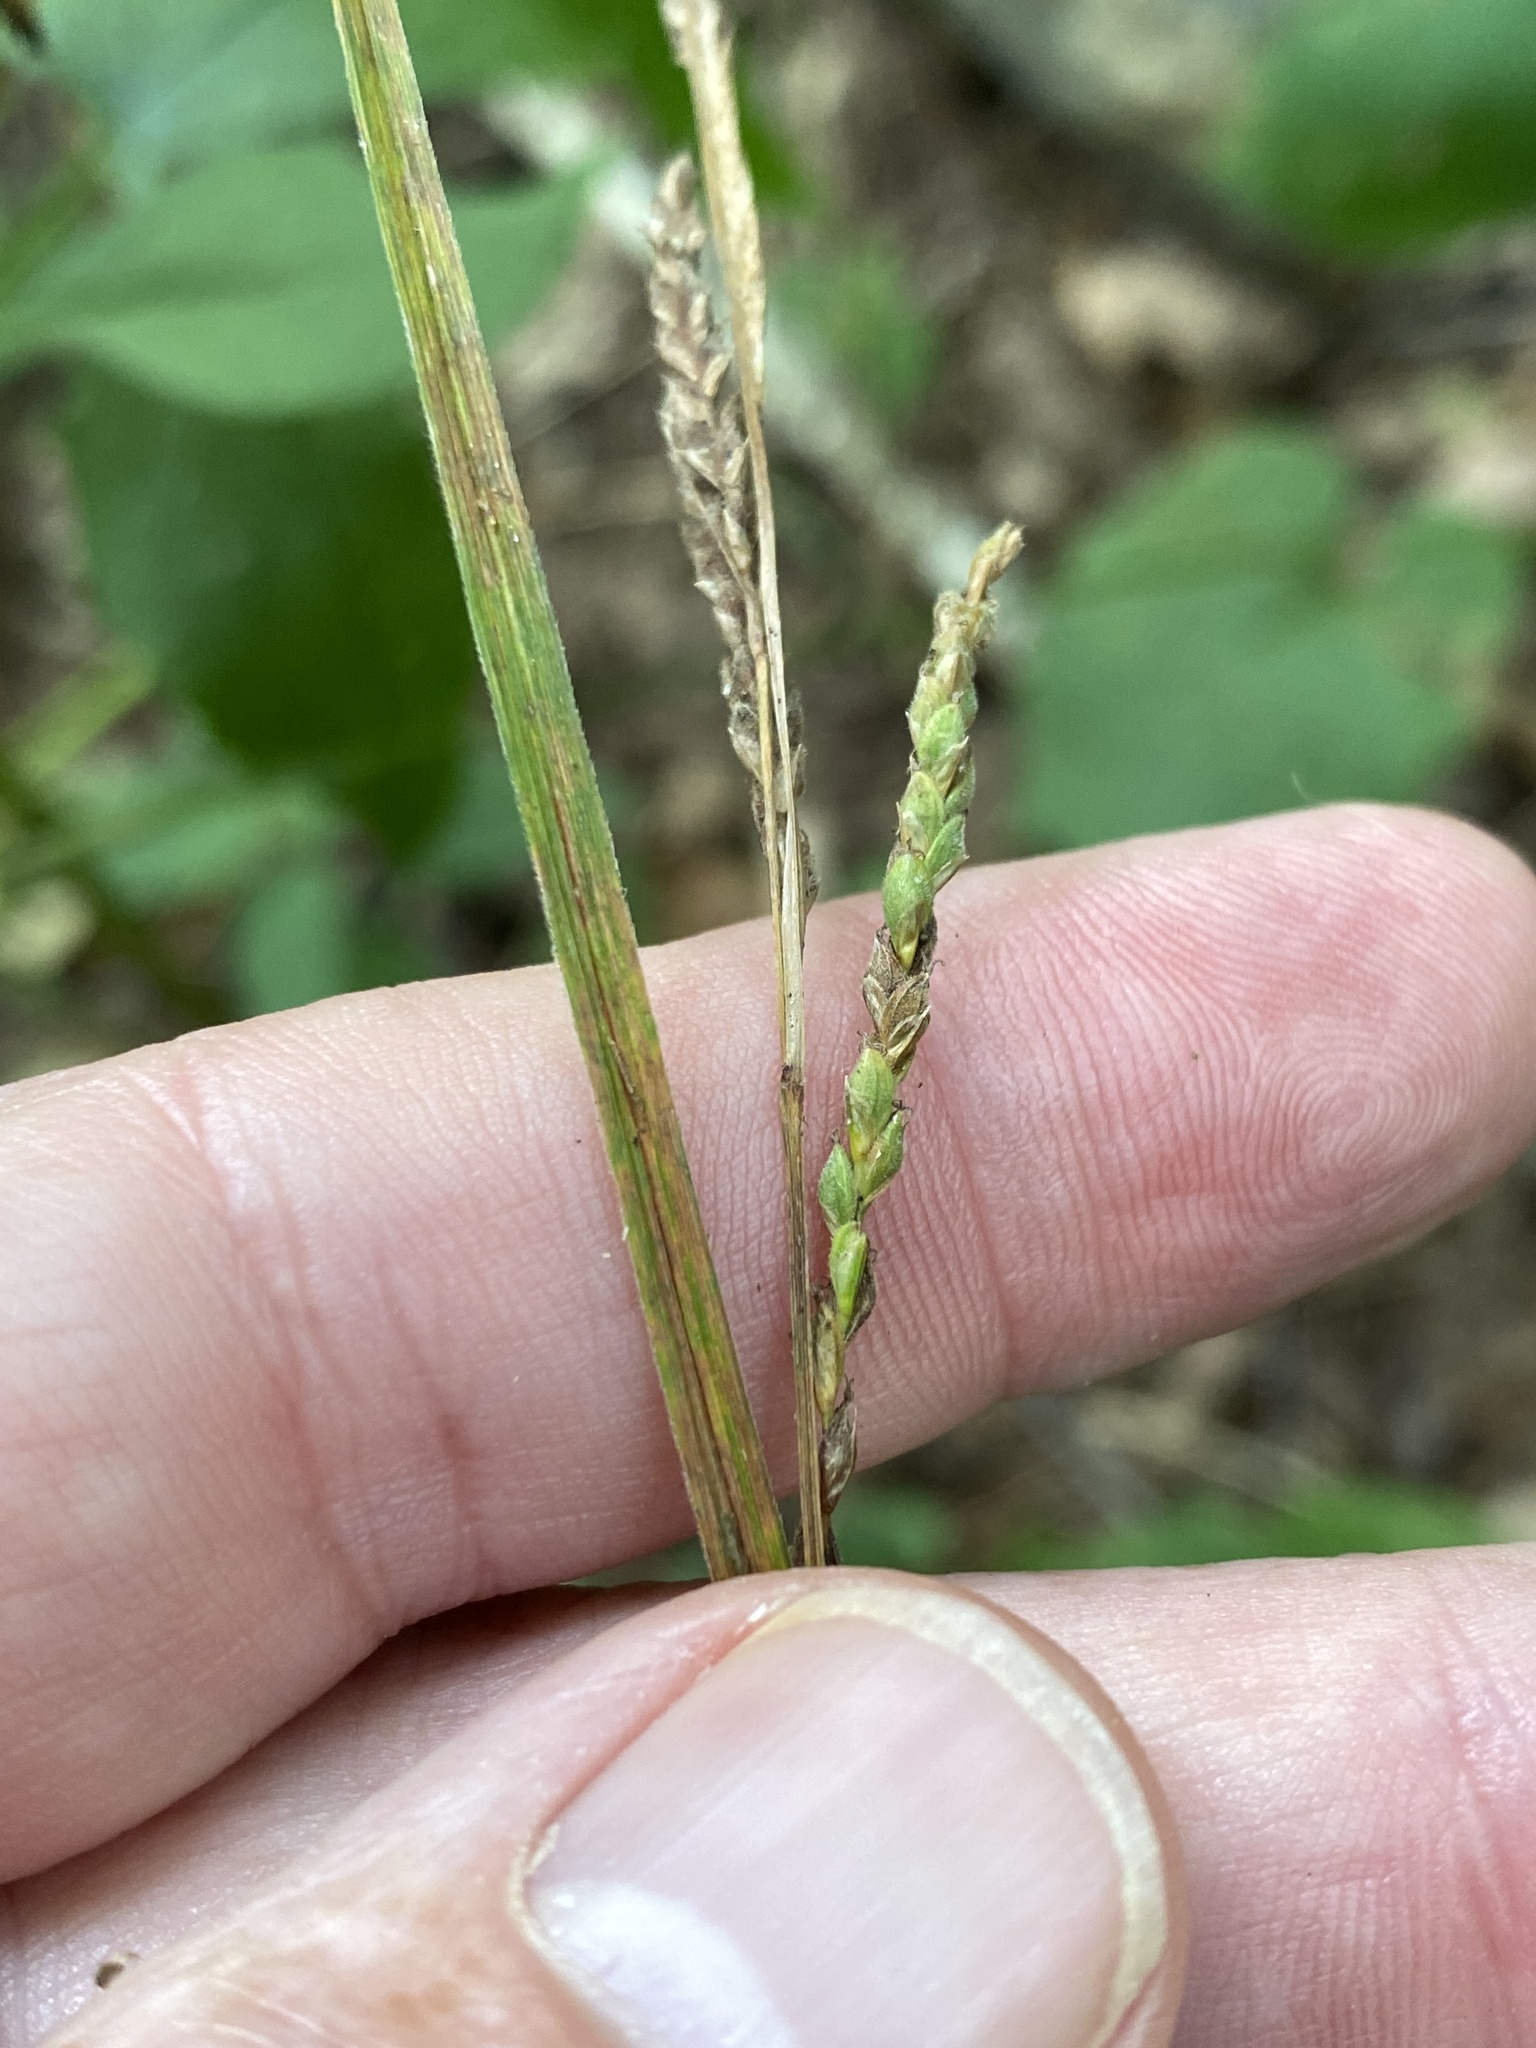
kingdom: Plantae
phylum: Tracheophyta
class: Liliopsida
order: Poales
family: Cyperaceae
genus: Carex
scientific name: Carex roanensis
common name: Roan mountain sedge
